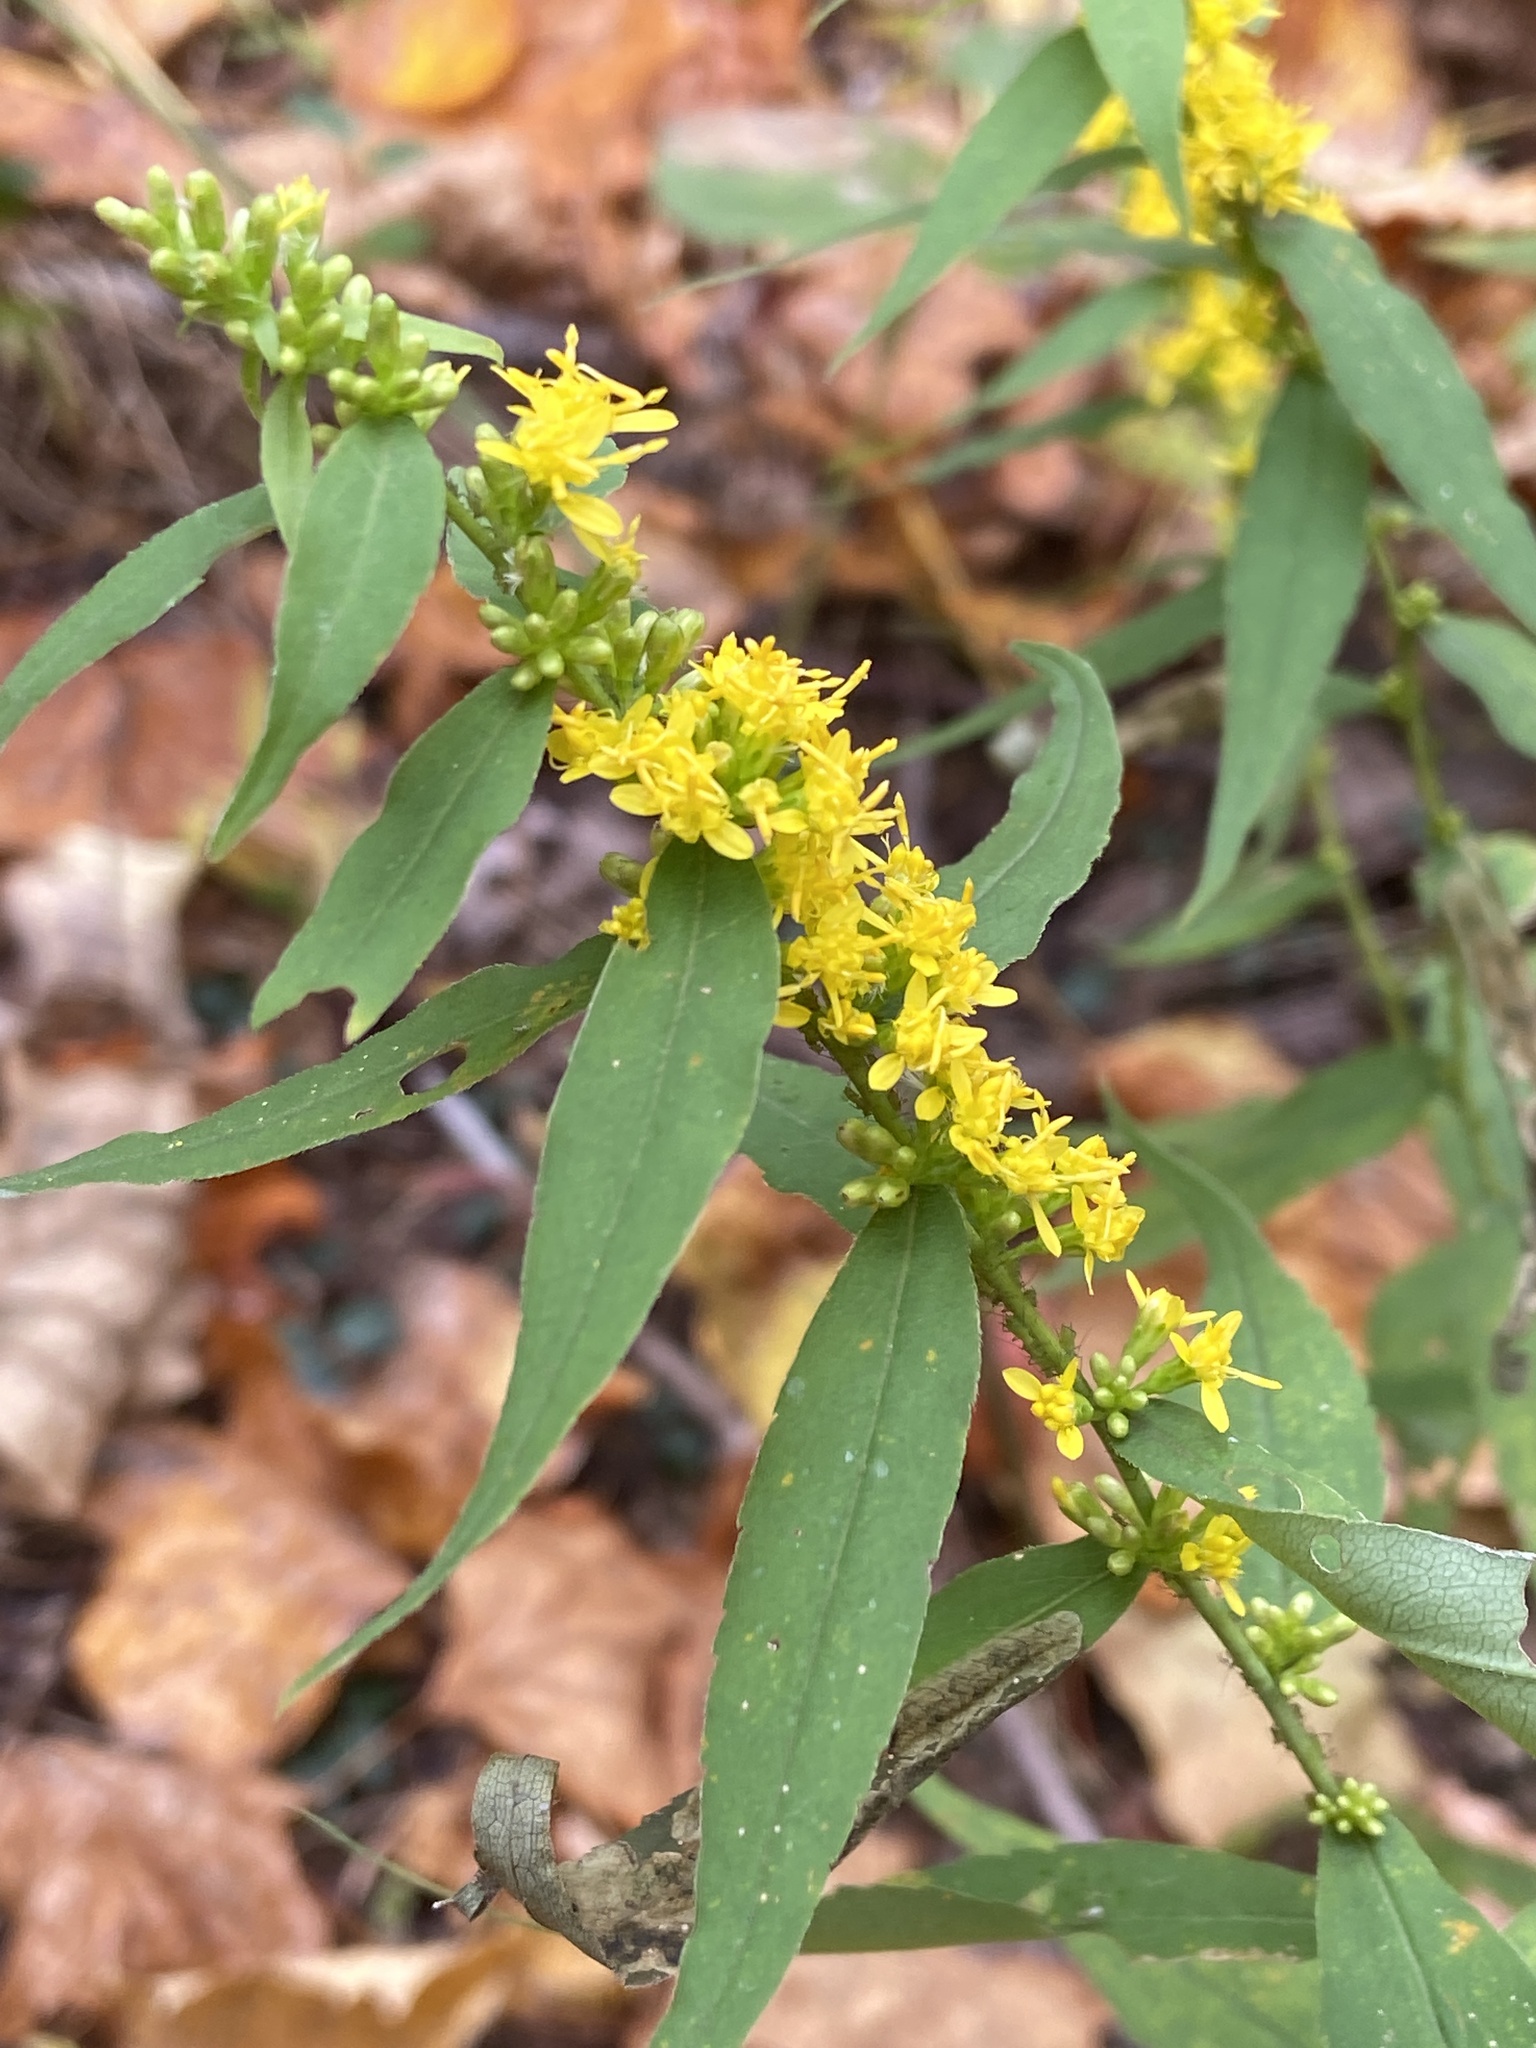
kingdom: Plantae
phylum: Tracheophyta
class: Magnoliopsida
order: Asterales
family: Asteraceae
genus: Solidago
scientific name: Solidago caesia
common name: Woodland goldenrod
